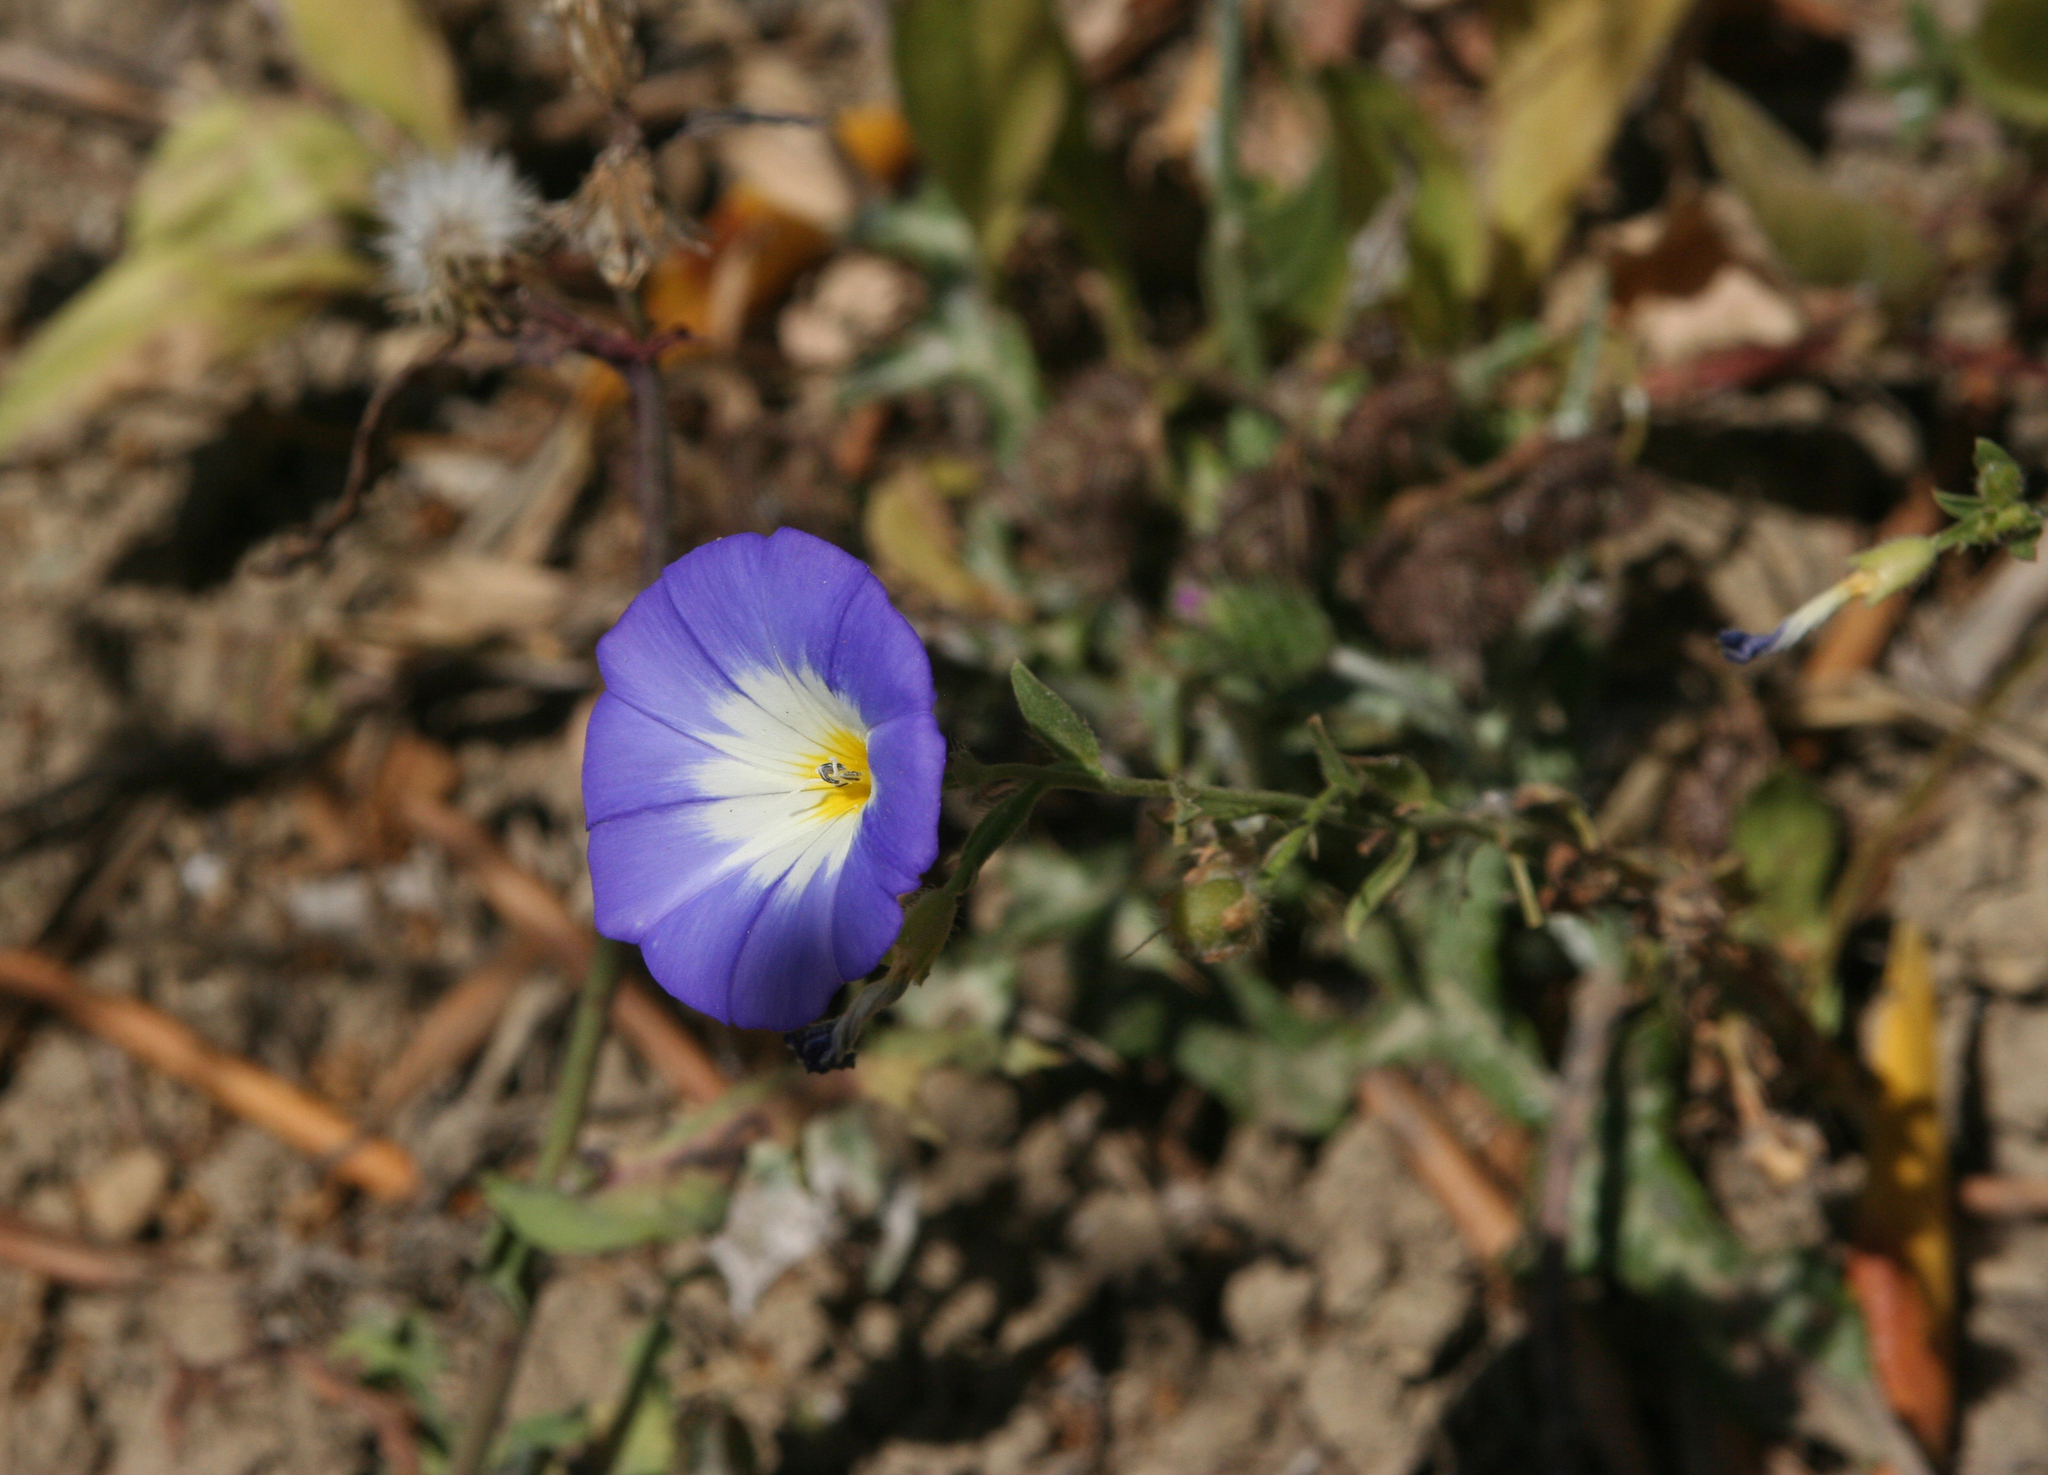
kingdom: Plantae
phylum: Tracheophyta
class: Magnoliopsida
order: Solanales
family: Convolvulaceae
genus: Convolvulus
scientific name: Convolvulus tricolor
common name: Dwarf morning-glory
